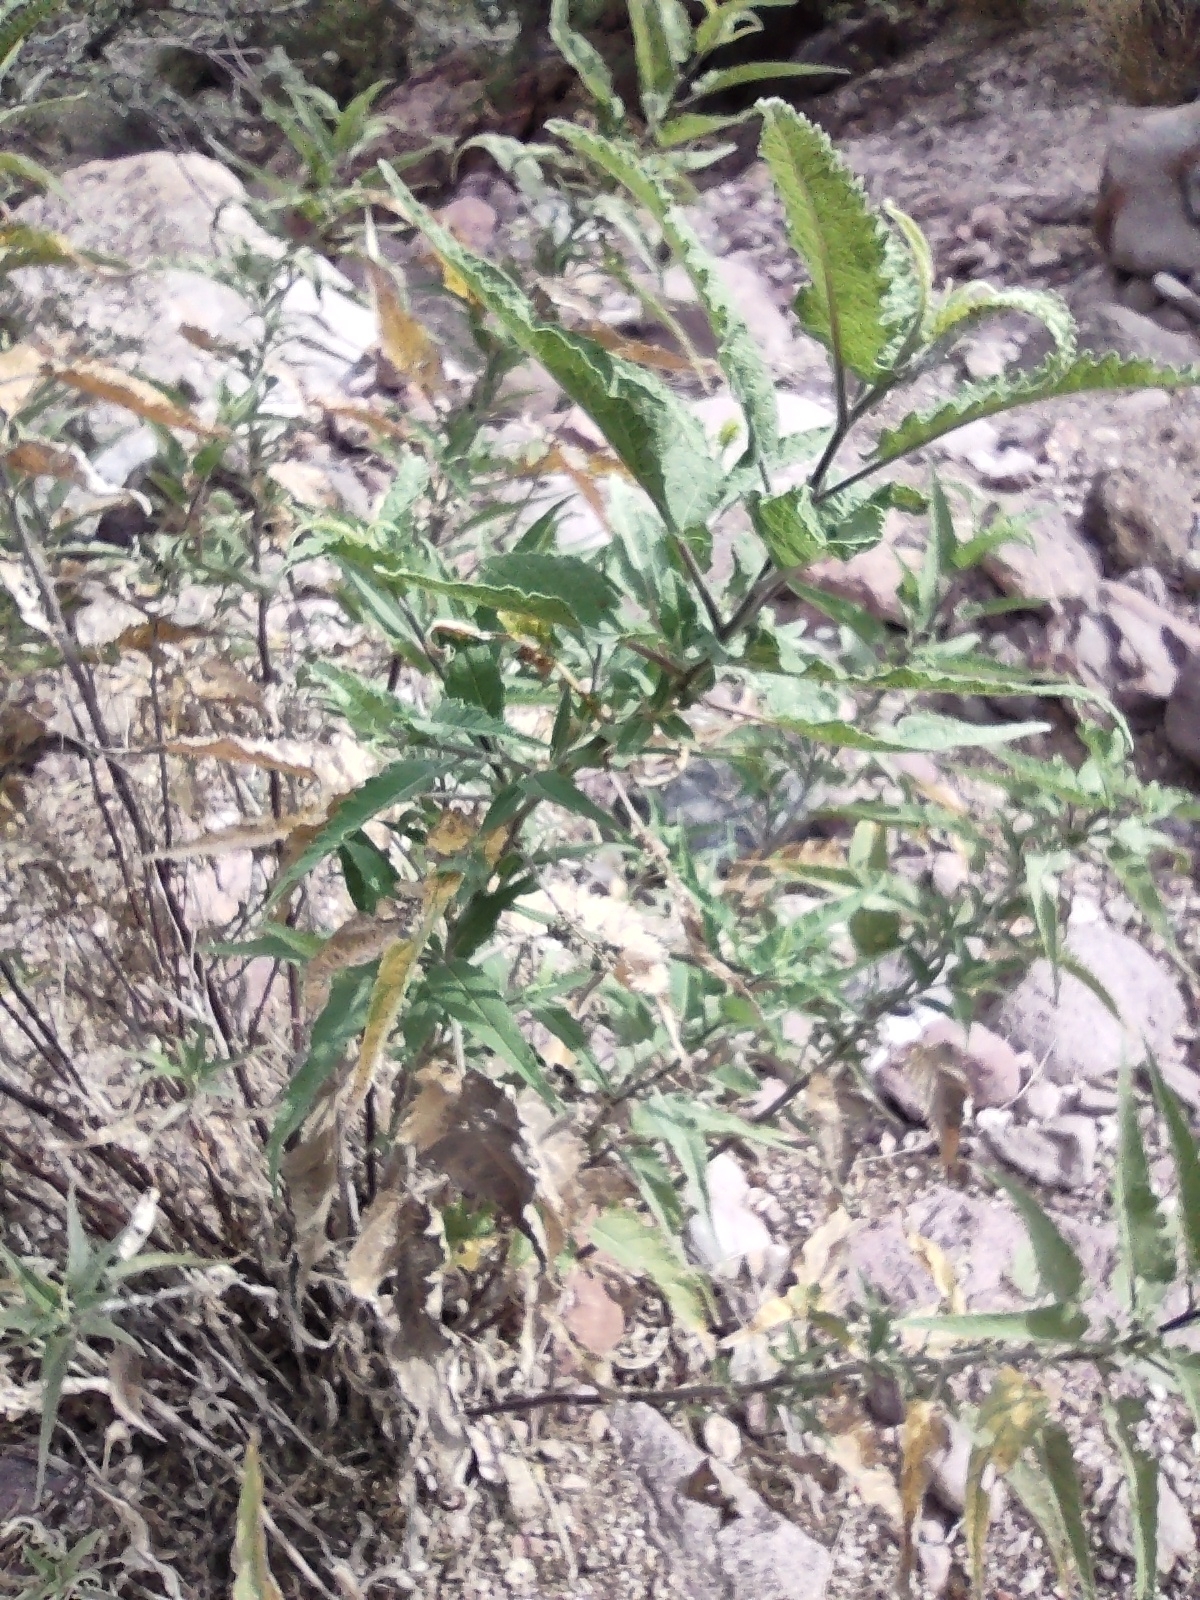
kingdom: Plantae
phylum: Tracheophyta
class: Magnoliopsida
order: Asterales
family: Asteraceae
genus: Ambrosia
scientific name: Ambrosia ambrosioides
